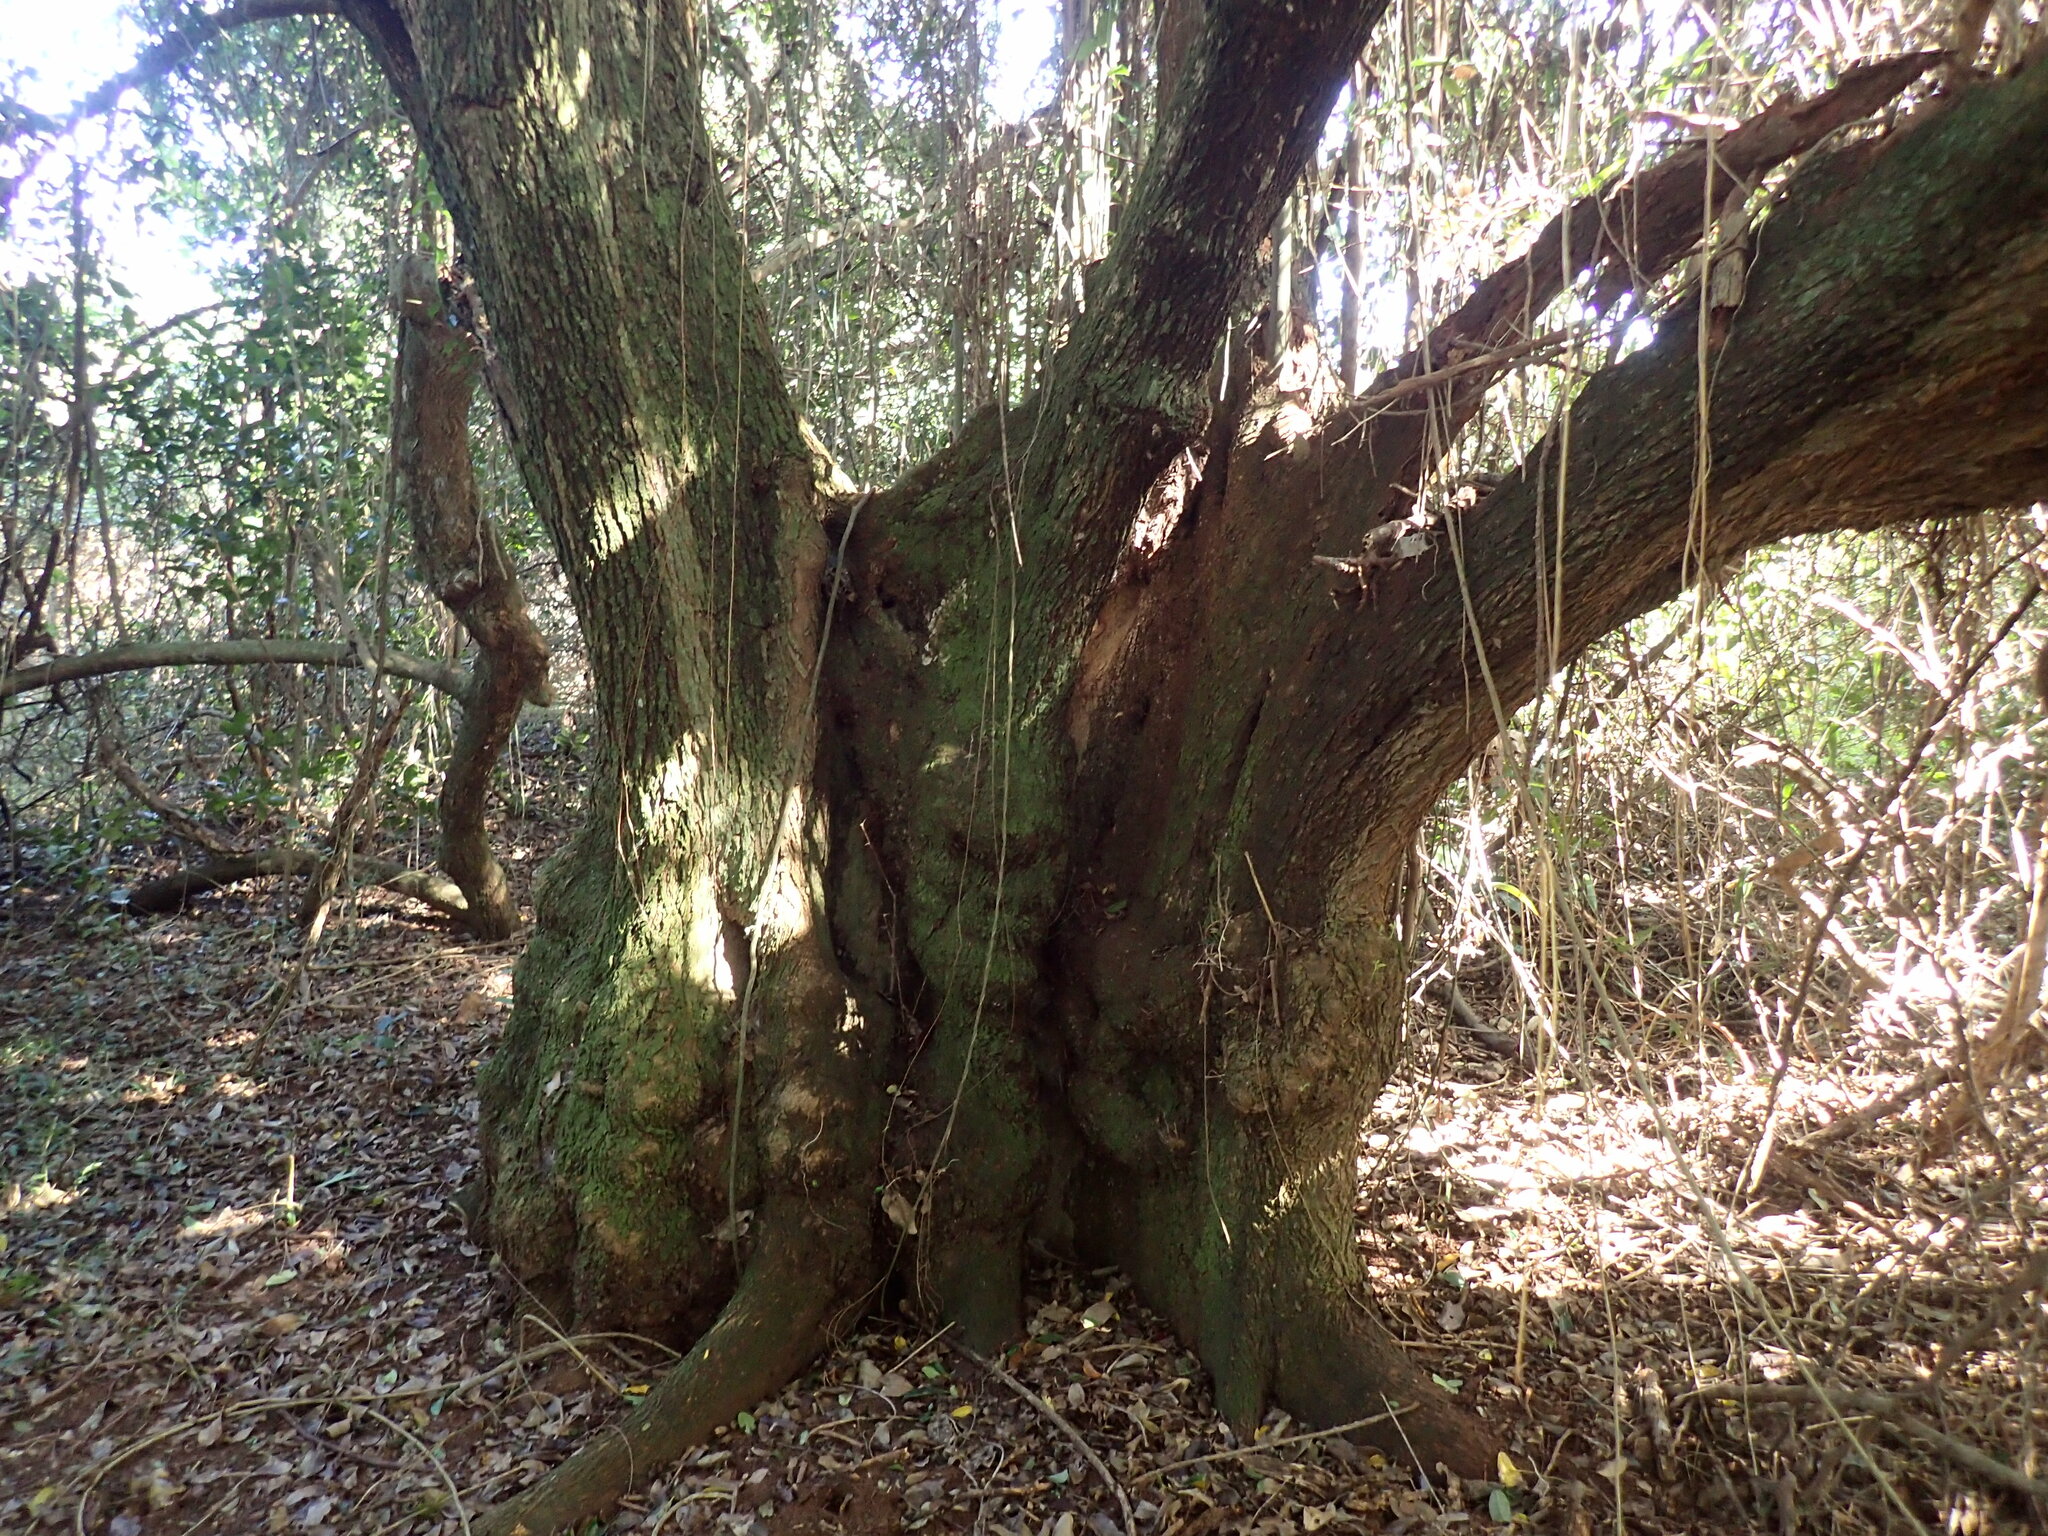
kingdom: Plantae
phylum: Tracheophyta
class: Magnoliopsida
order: Rosales
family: Cannabaceae
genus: Chaetachme
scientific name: Chaetachme aristata
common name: Thorny elm
